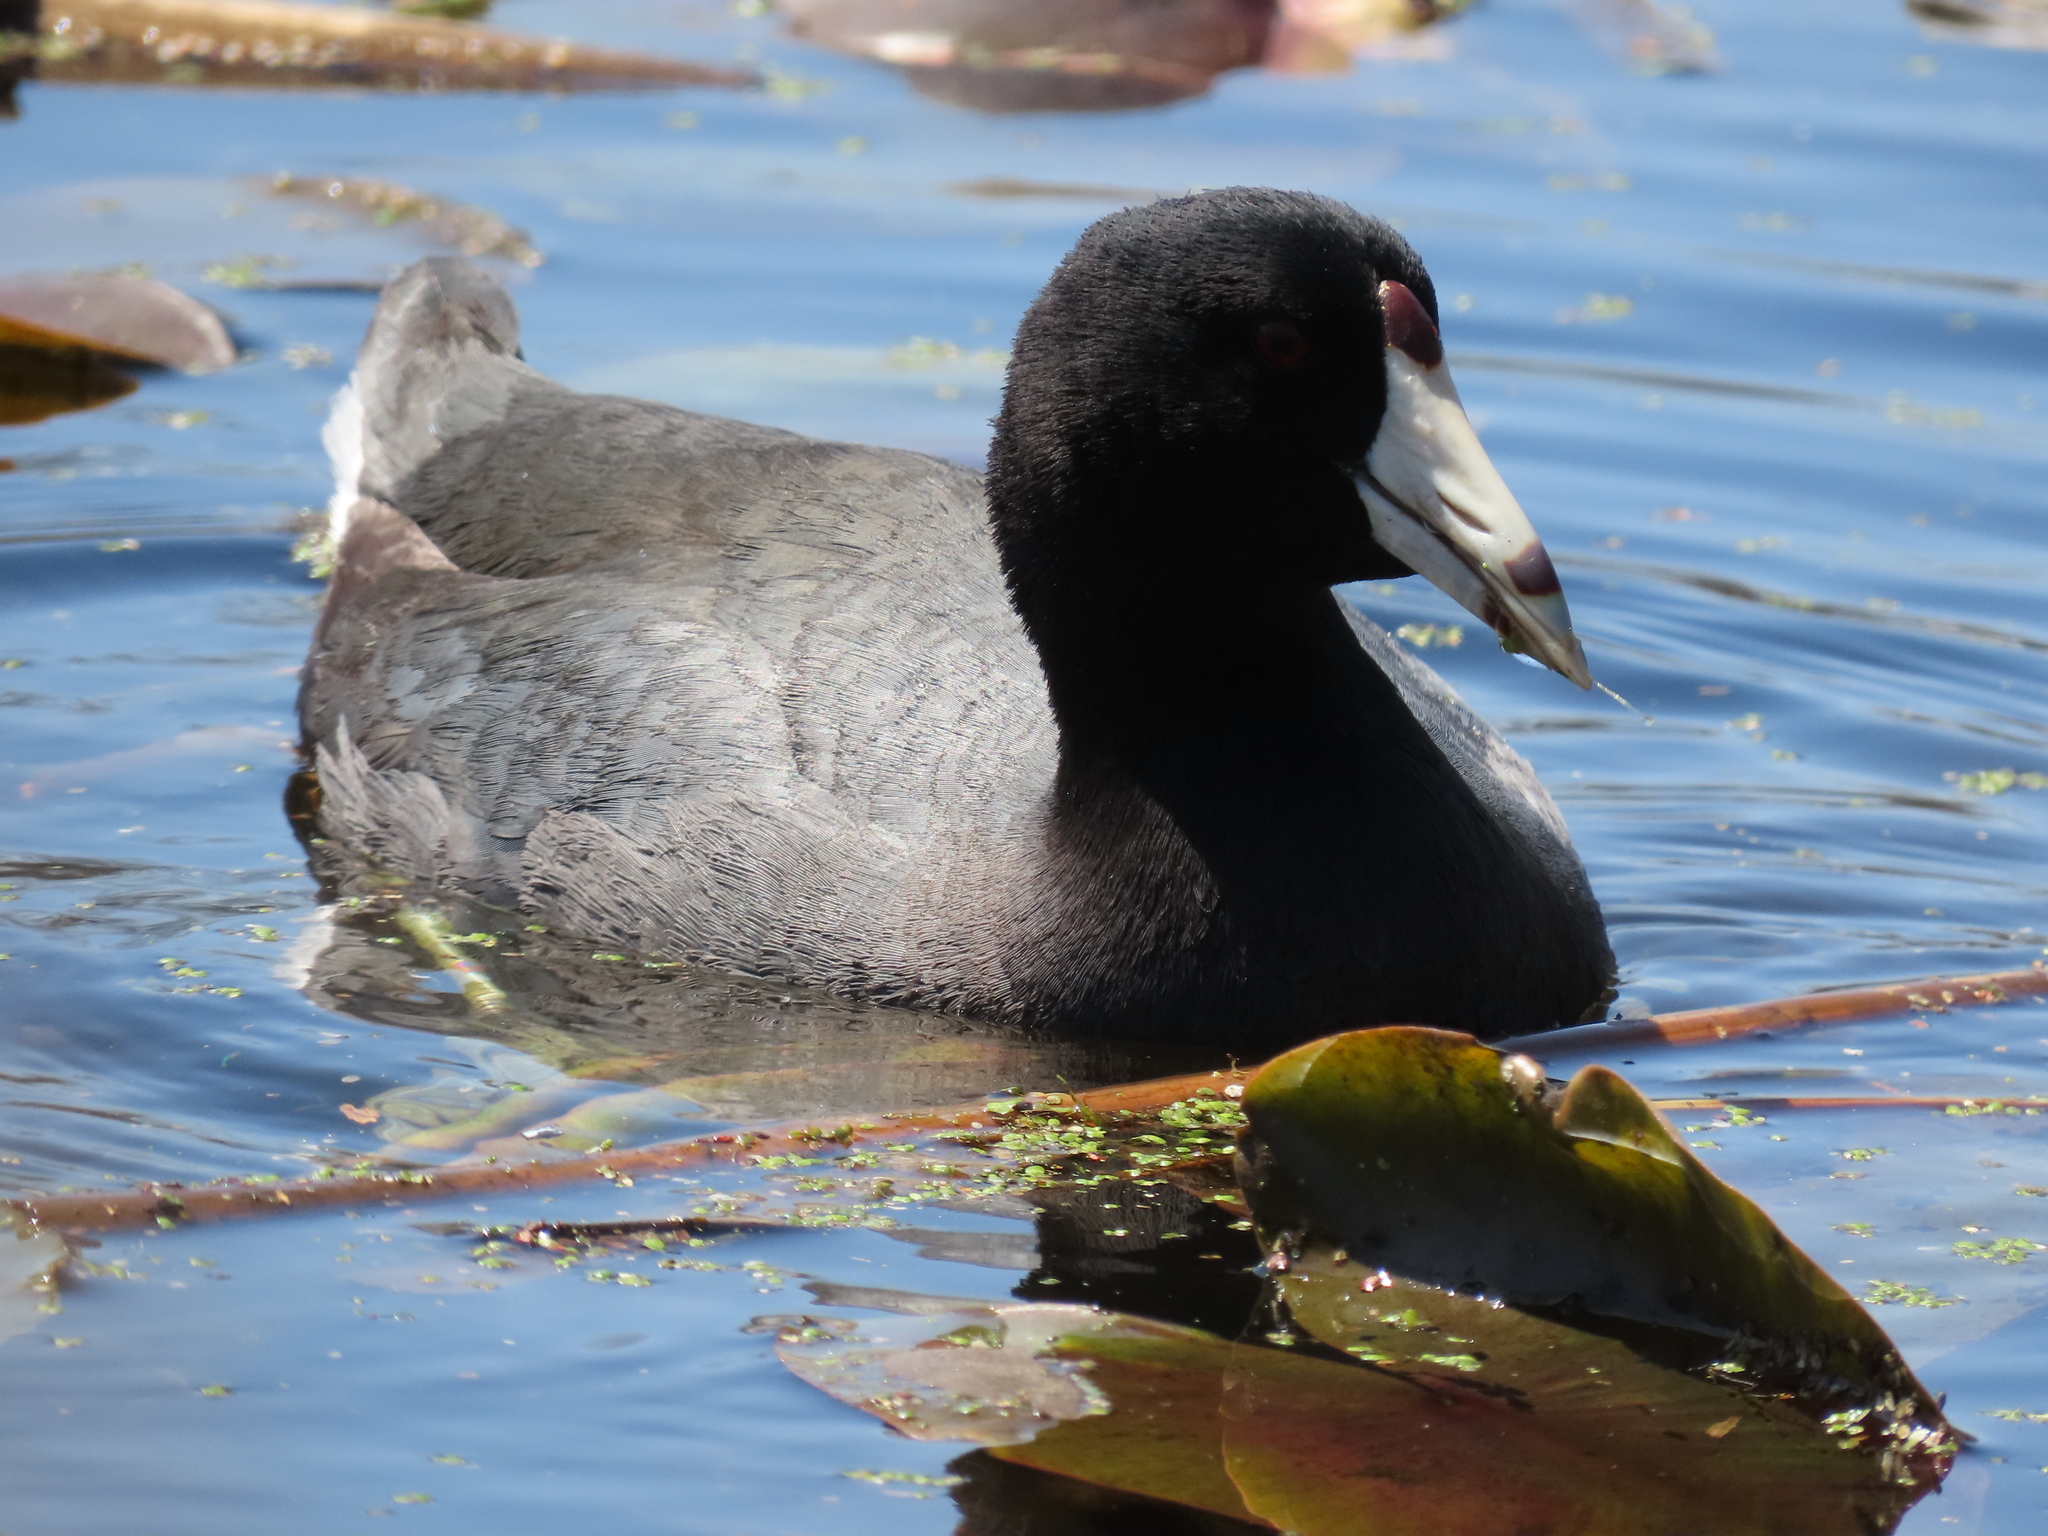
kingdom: Animalia
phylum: Chordata
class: Aves
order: Gruiformes
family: Rallidae
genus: Fulica
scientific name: Fulica americana
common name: American coot
